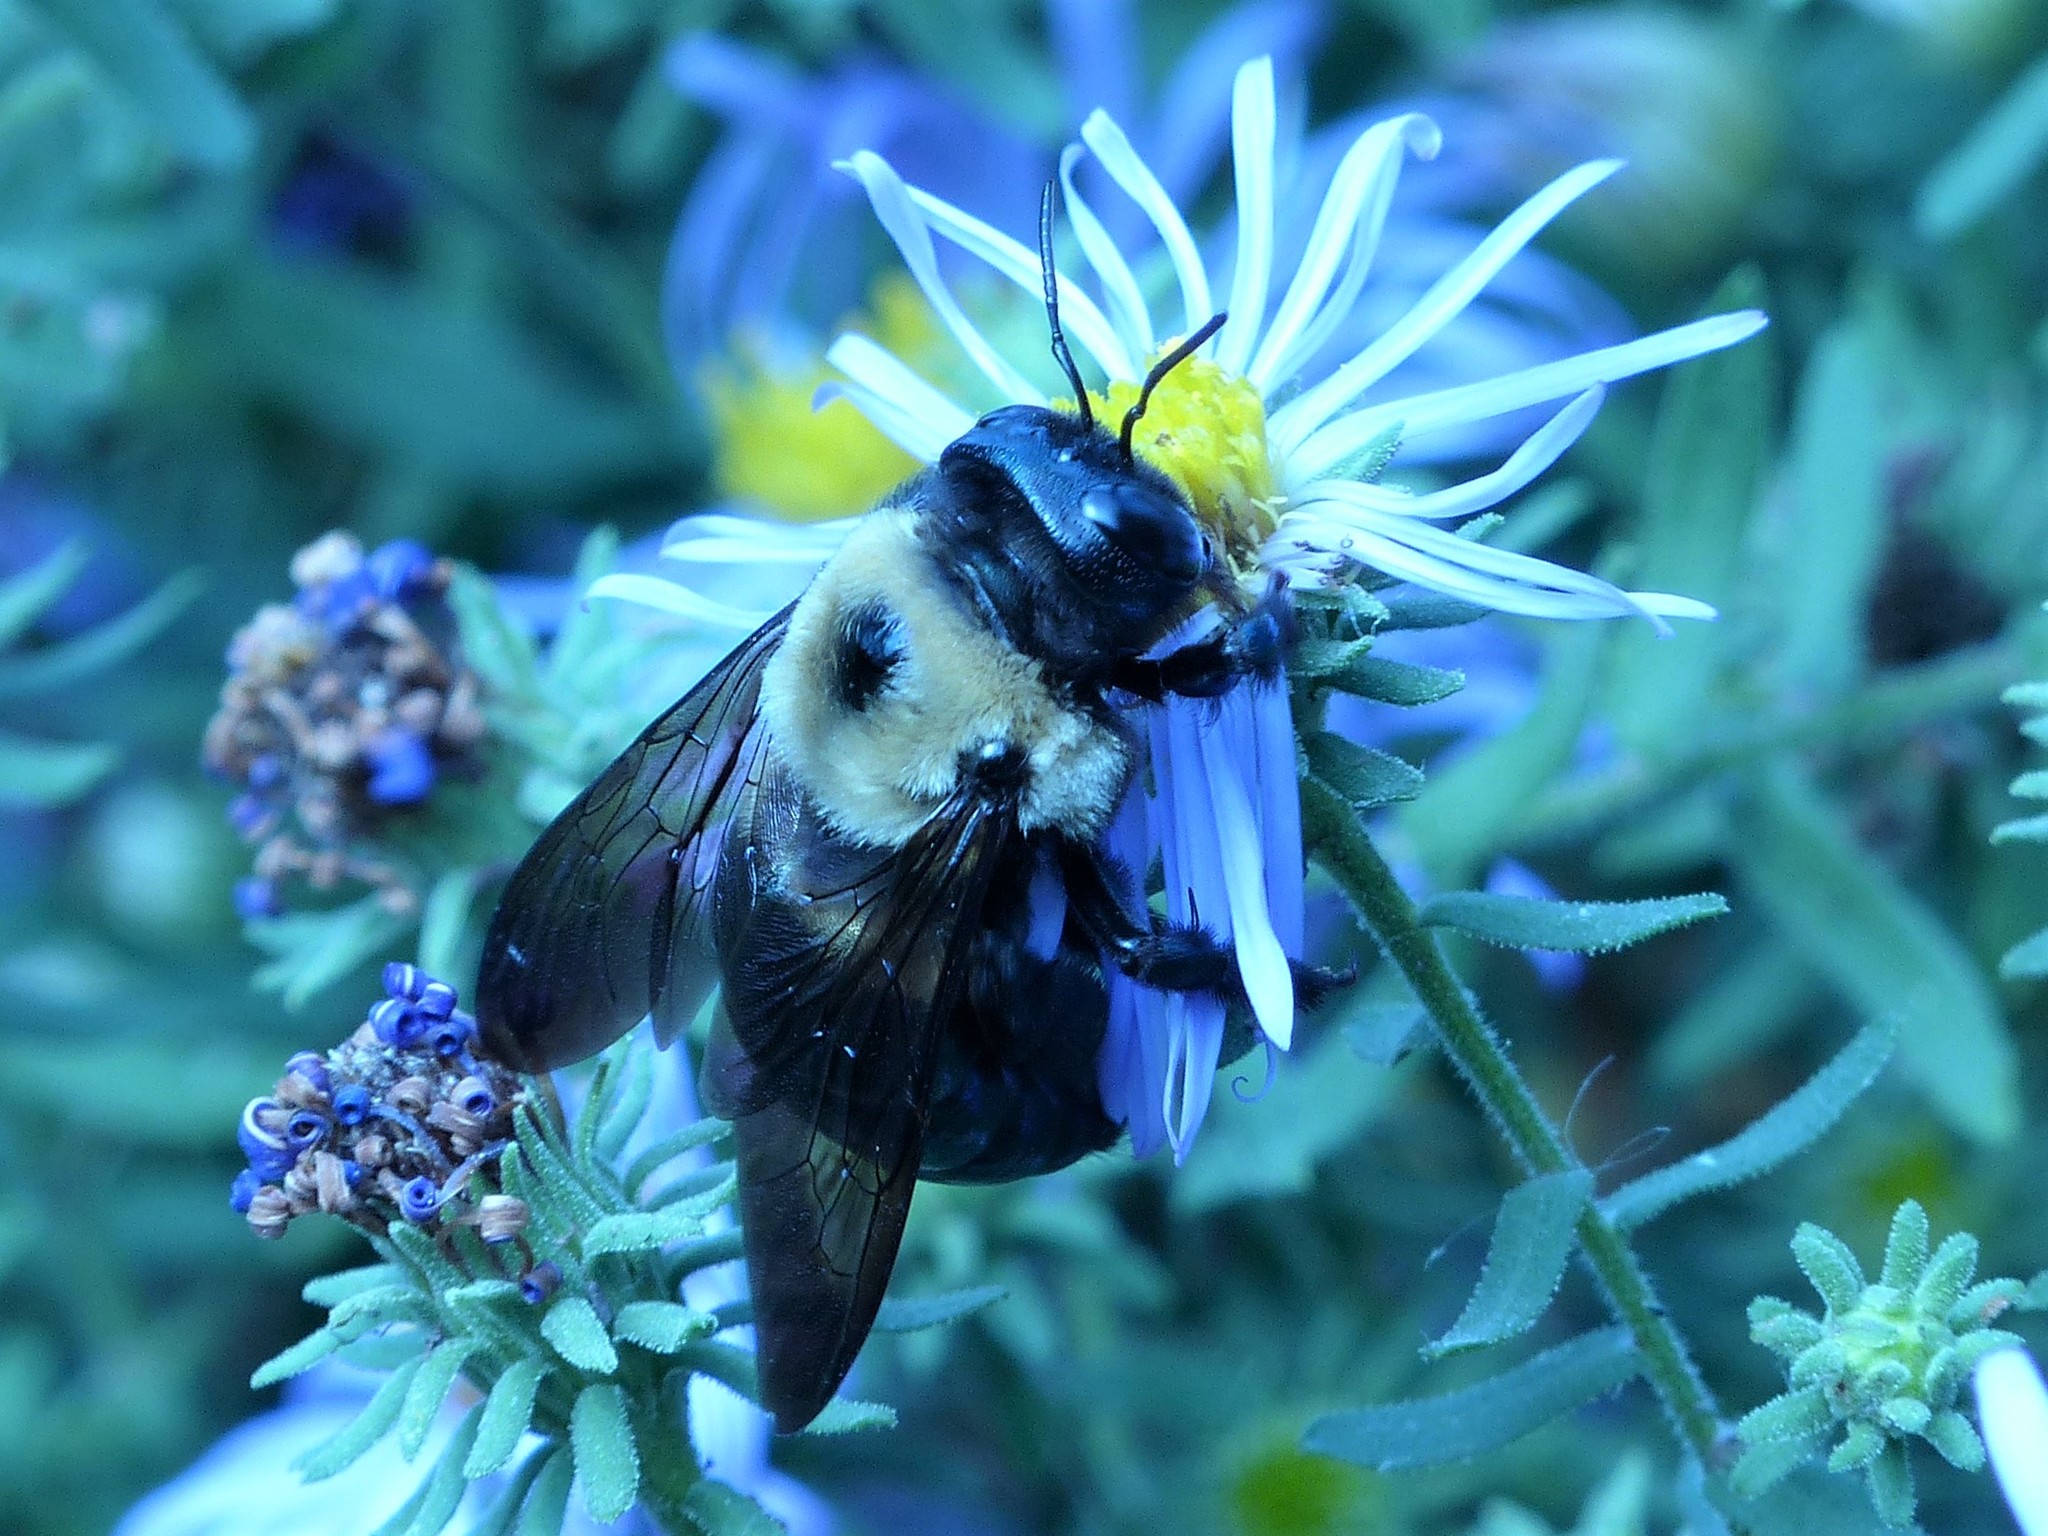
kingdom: Animalia
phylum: Arthropoda
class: Insecta
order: Hymenoptera
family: Apidae
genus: Xylocopa
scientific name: Xylocopa virginica
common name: Carpenter bee
